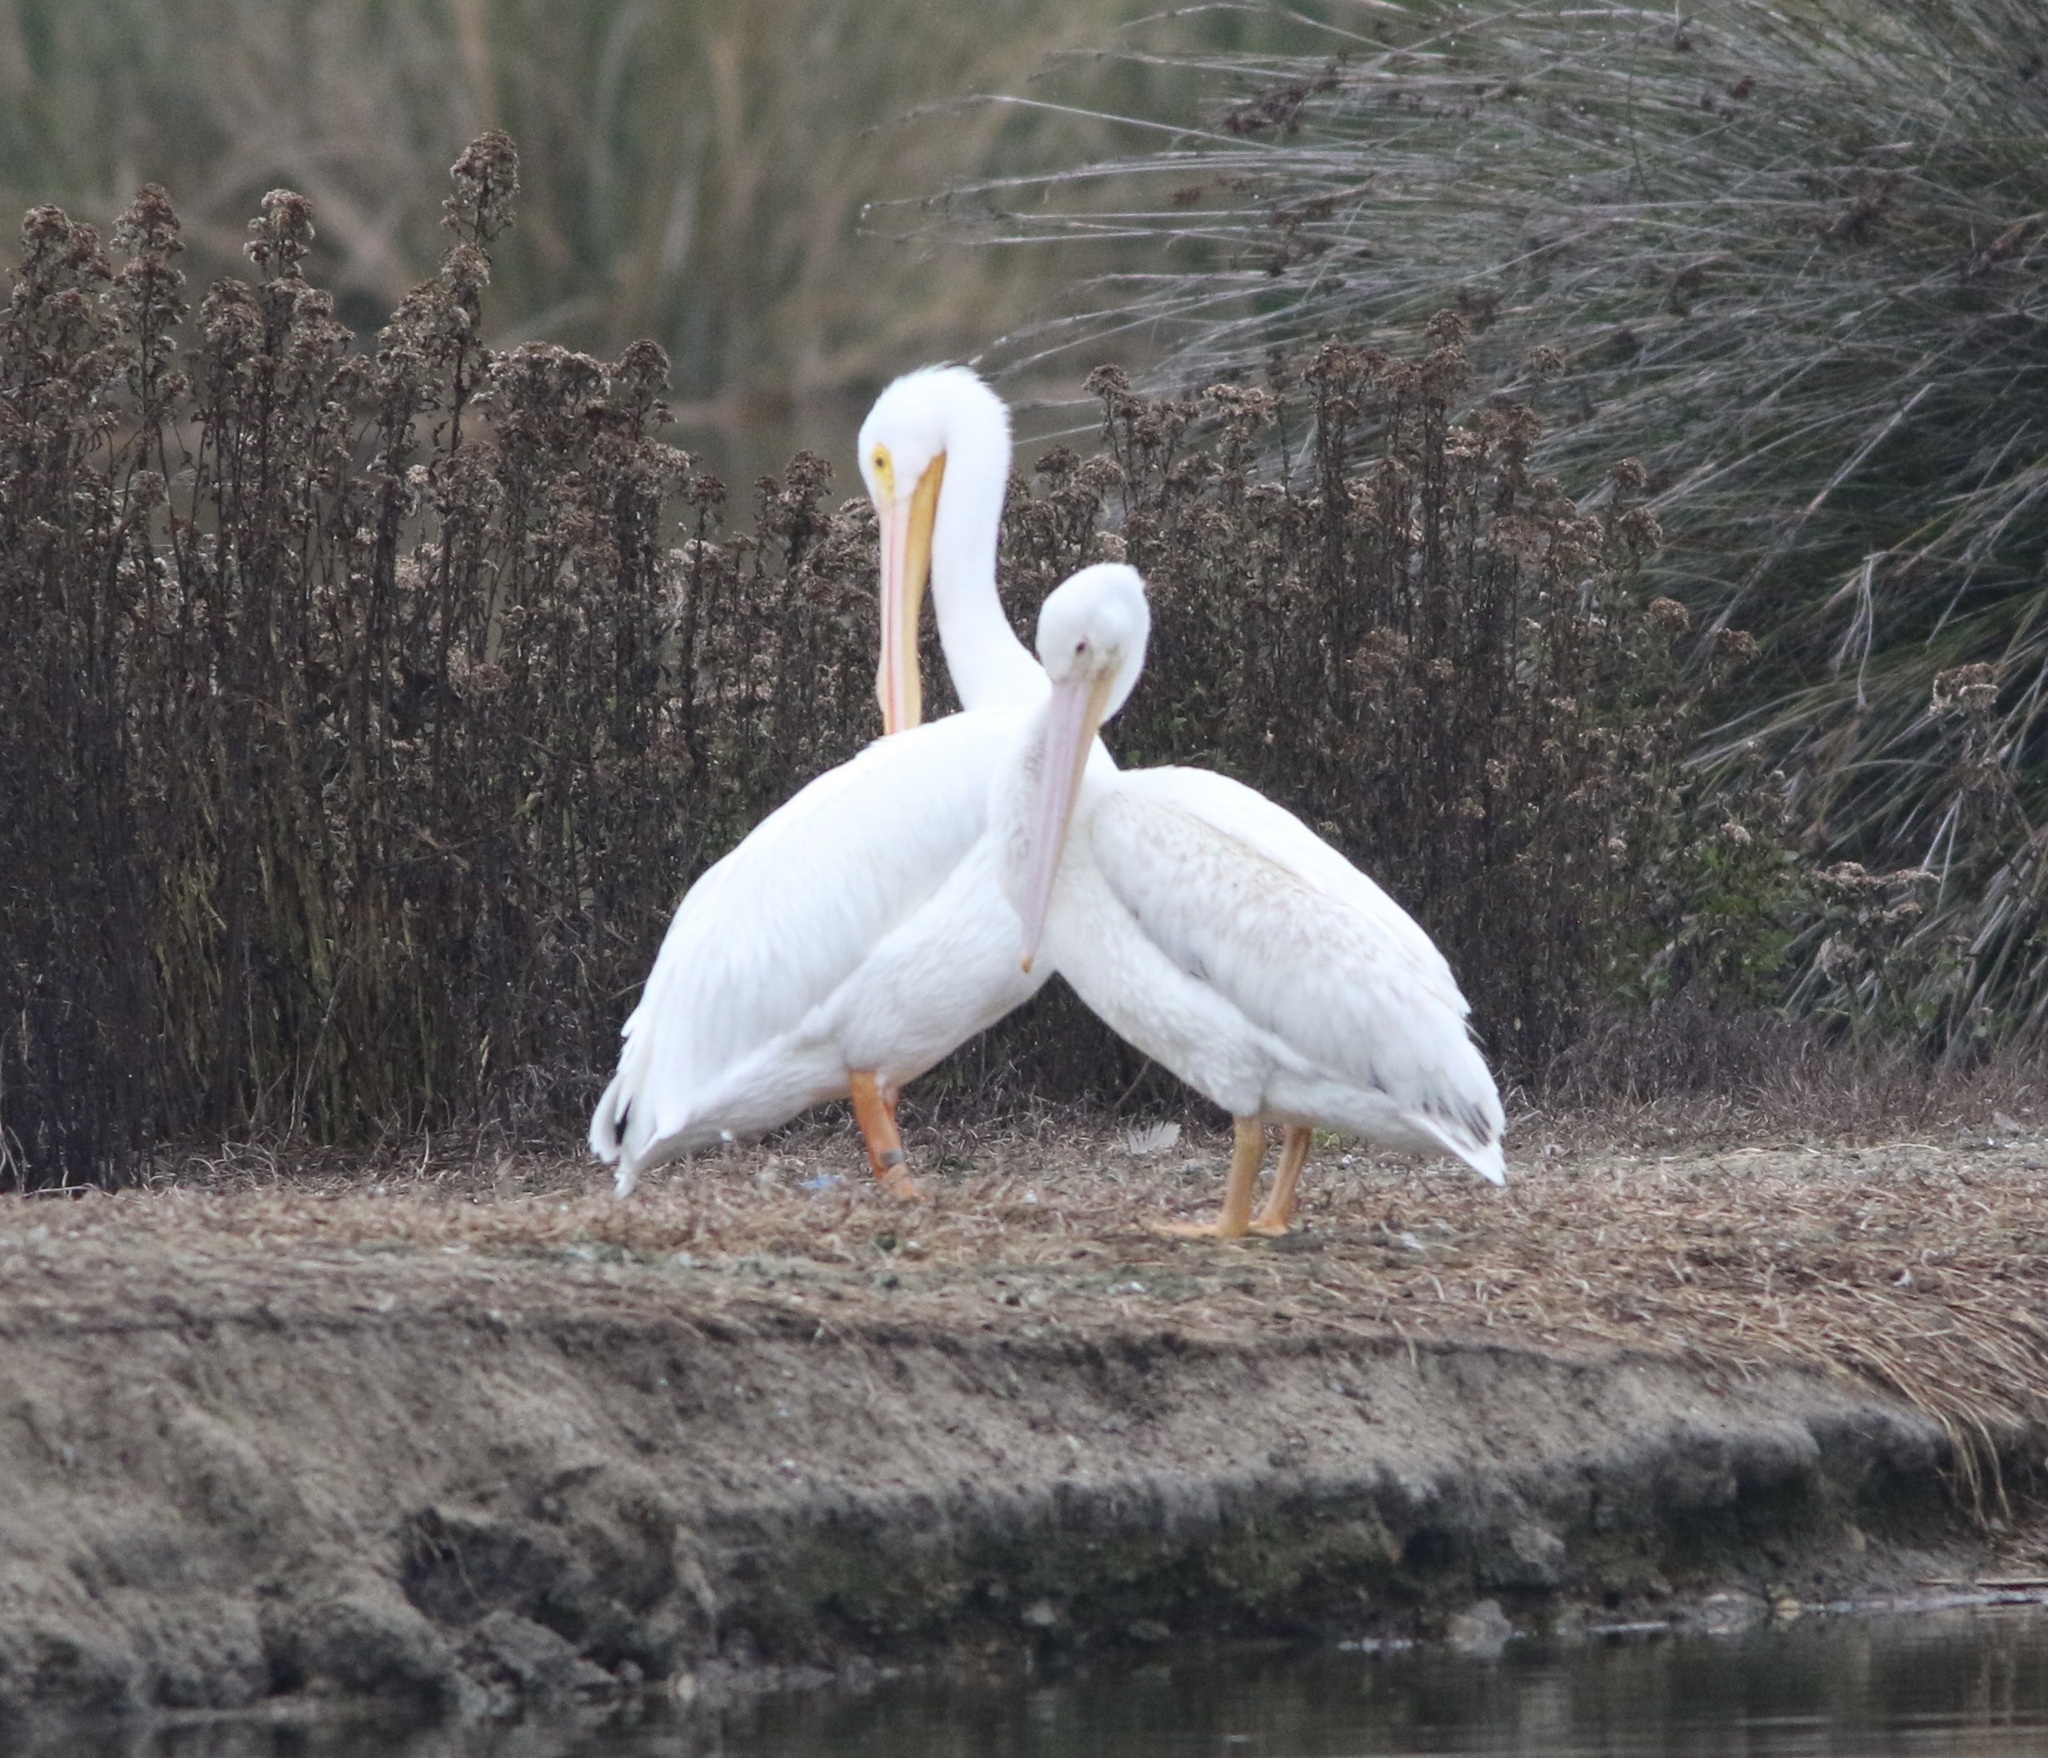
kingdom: Animalia
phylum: Chordata
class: Aves
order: Pelecaniformes
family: Pelecanidae
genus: Pelecanus
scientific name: Pelecanus erythrorhynchos
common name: American white pelican
